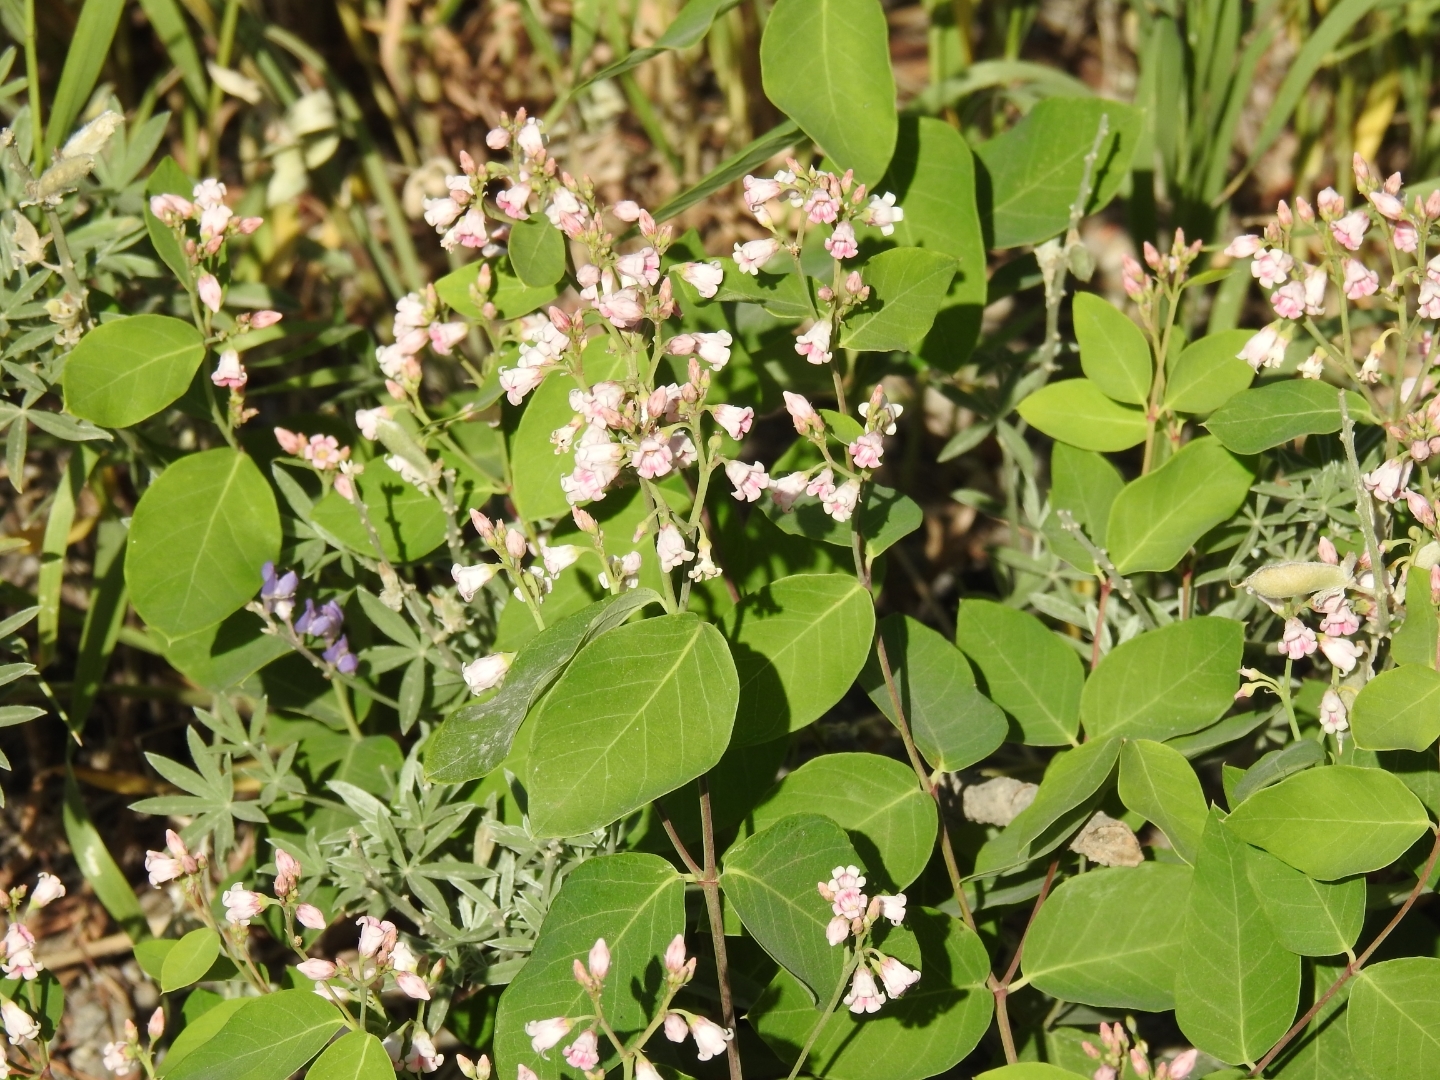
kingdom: Plantae
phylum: Tracheophyta
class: Magnoliopsida
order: Gentianales
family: Apocynaceae
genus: Apocynum
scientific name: Apocynum androsaemifolium
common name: Spreading dogbane
